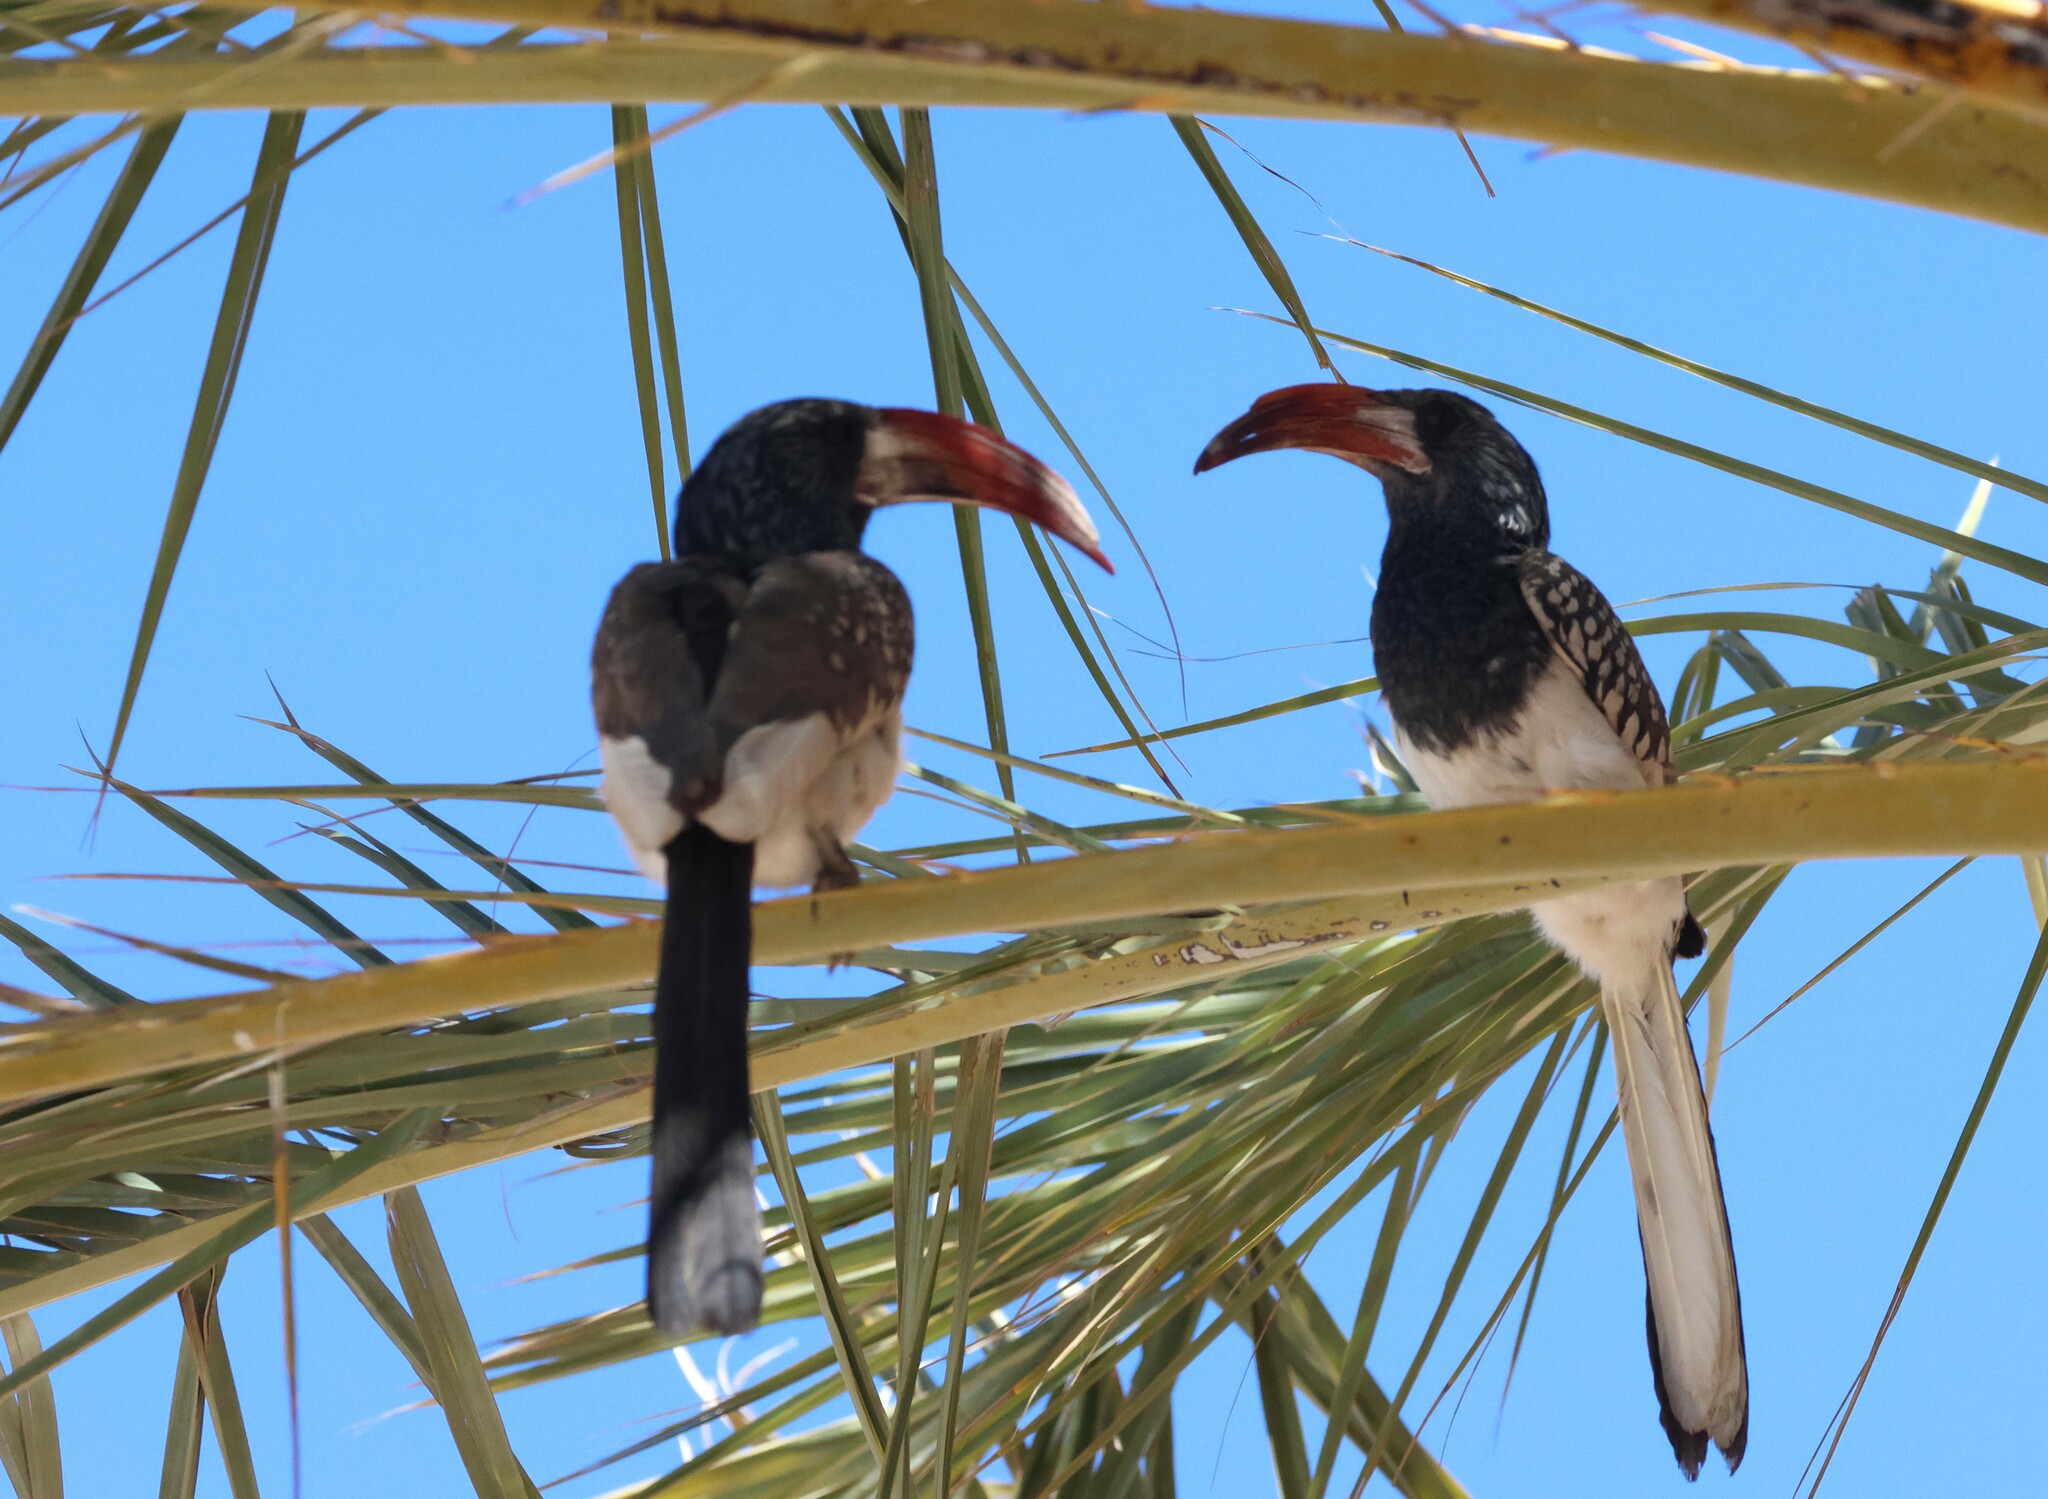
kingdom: Animalia
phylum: Chordata
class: Aves
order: Bucerotiformes
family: Bucerotidae
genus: Tockus
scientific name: Tockus monteiri
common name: Monteiro's hornbill
